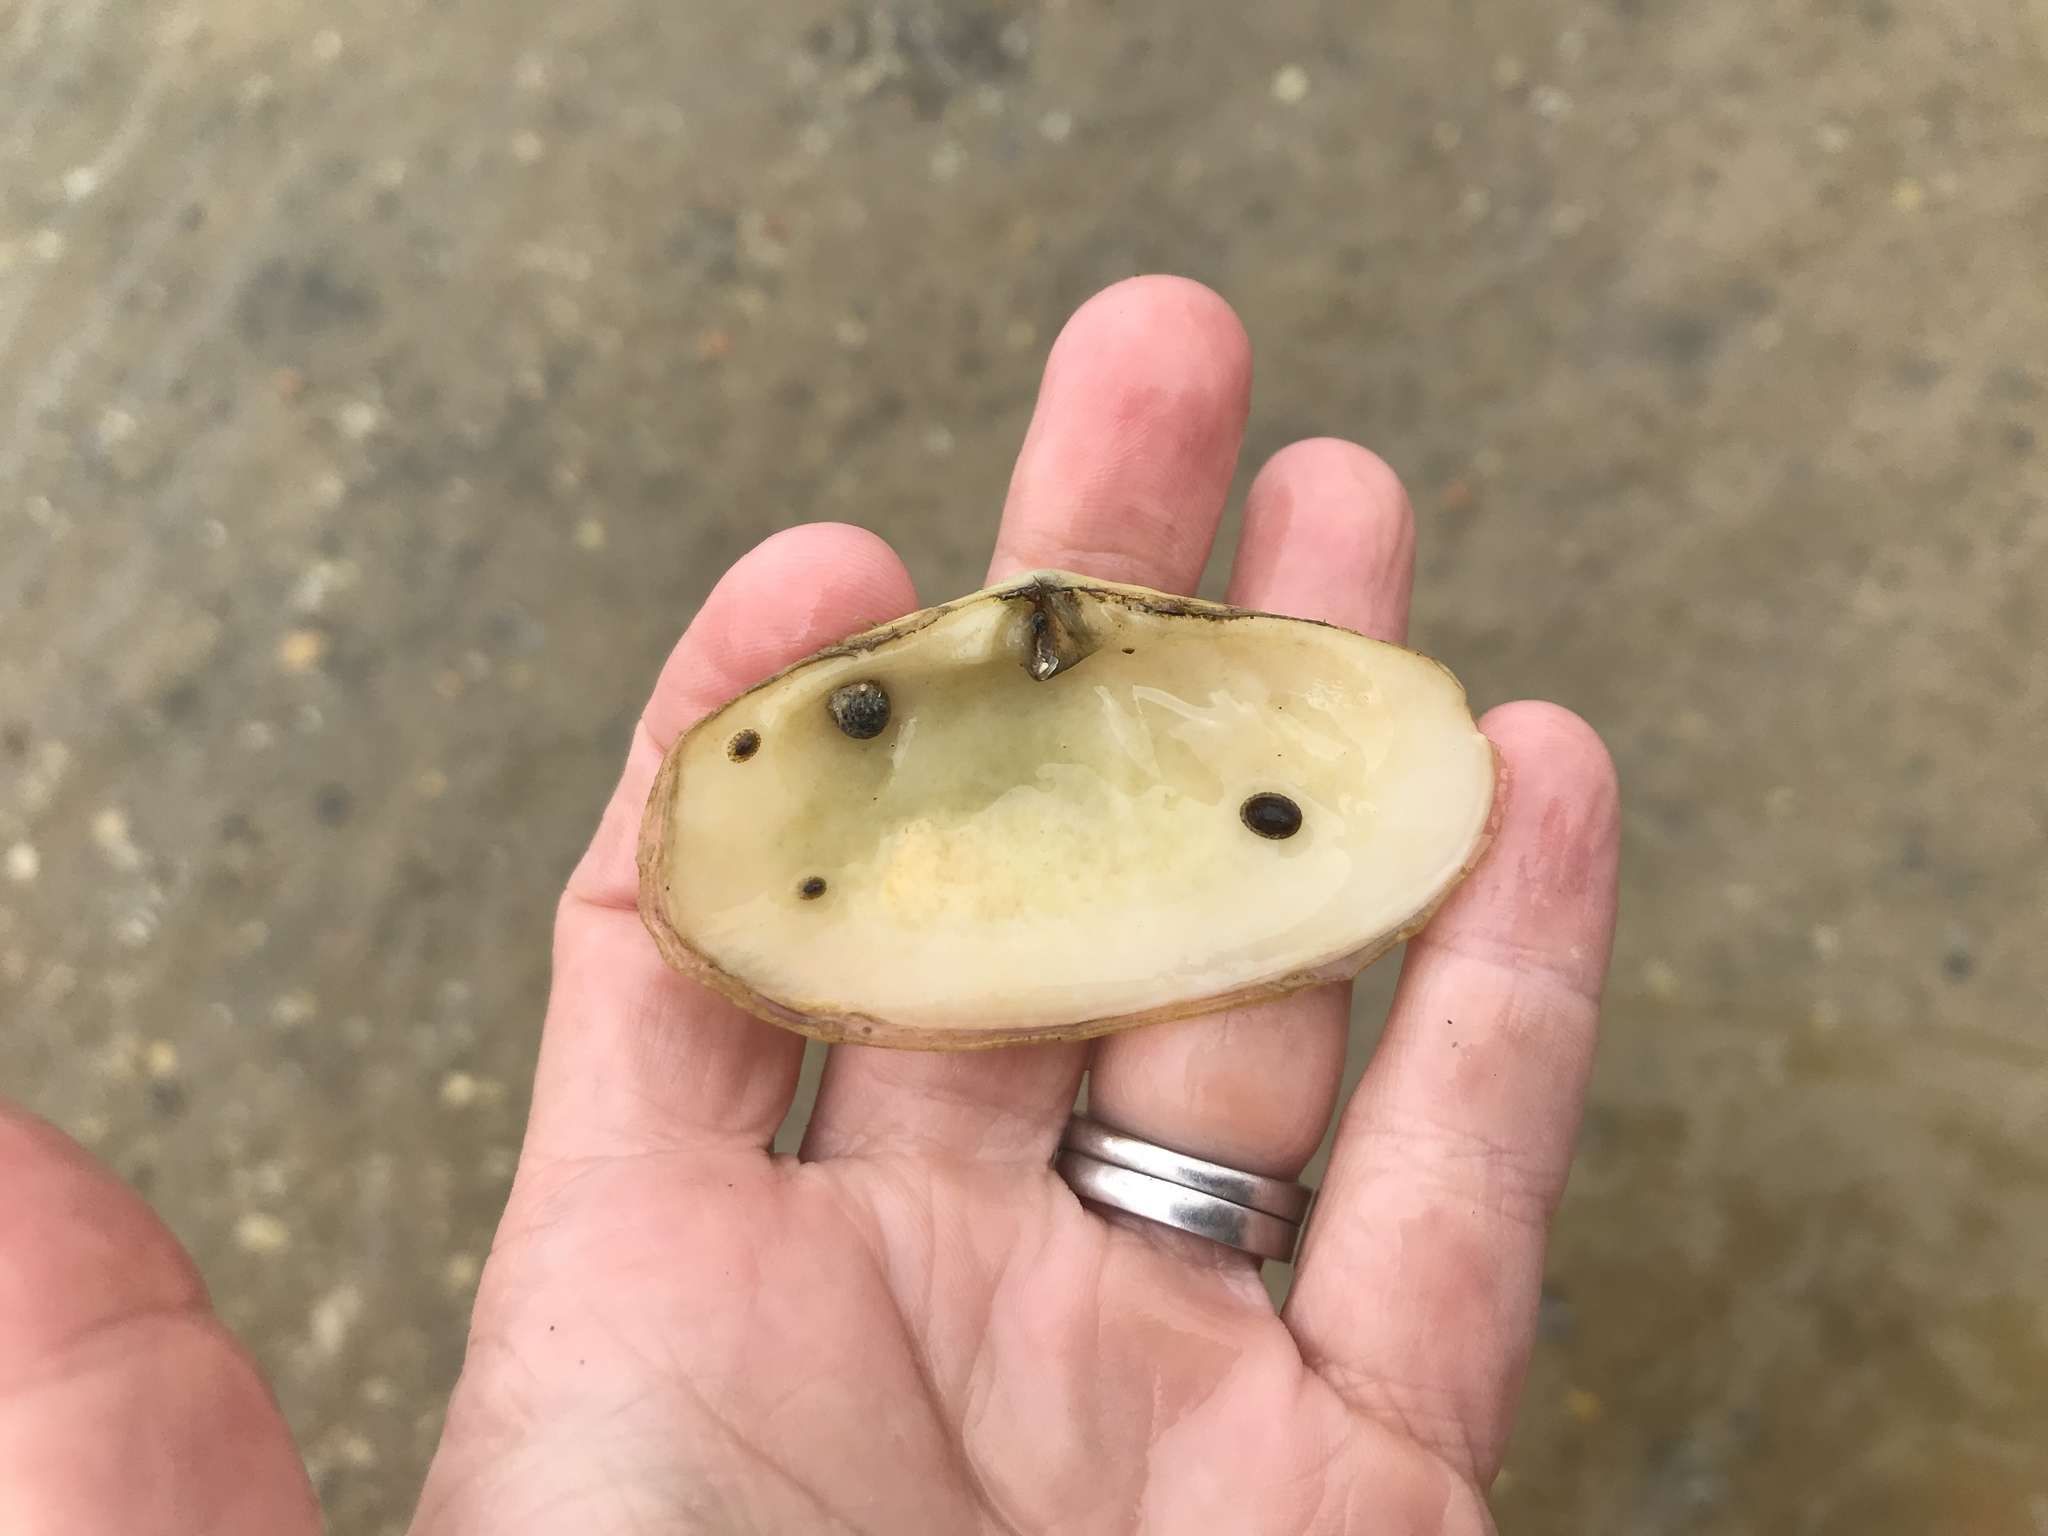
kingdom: Animalia
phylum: Mollusca
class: Bivalvia
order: Venerida
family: Mesodesmatidae
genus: Paphies
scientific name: Paphies australis
